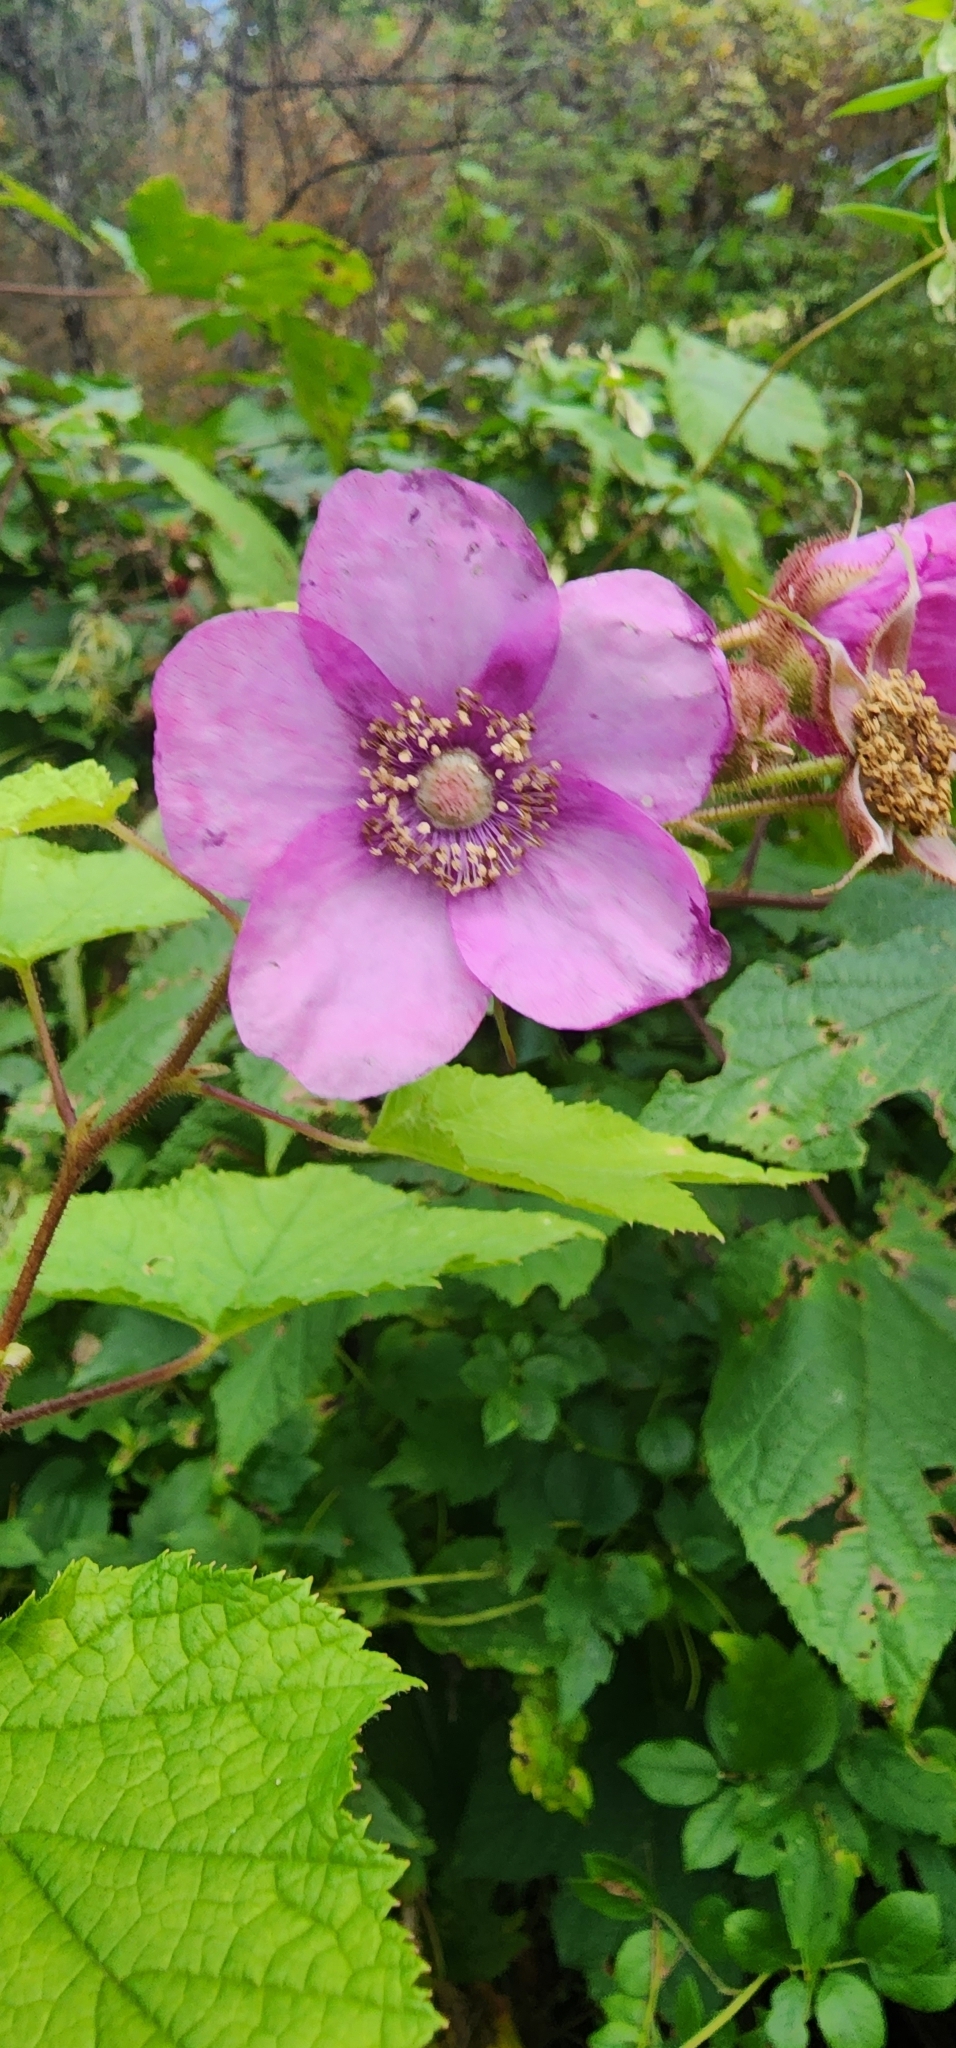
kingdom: Plantae
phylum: Tracheophyta
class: Magnoliopsida
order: Rosales
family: Rosaceae
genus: Rubus
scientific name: Rubus odoratus
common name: Purple-flowered raspberry
